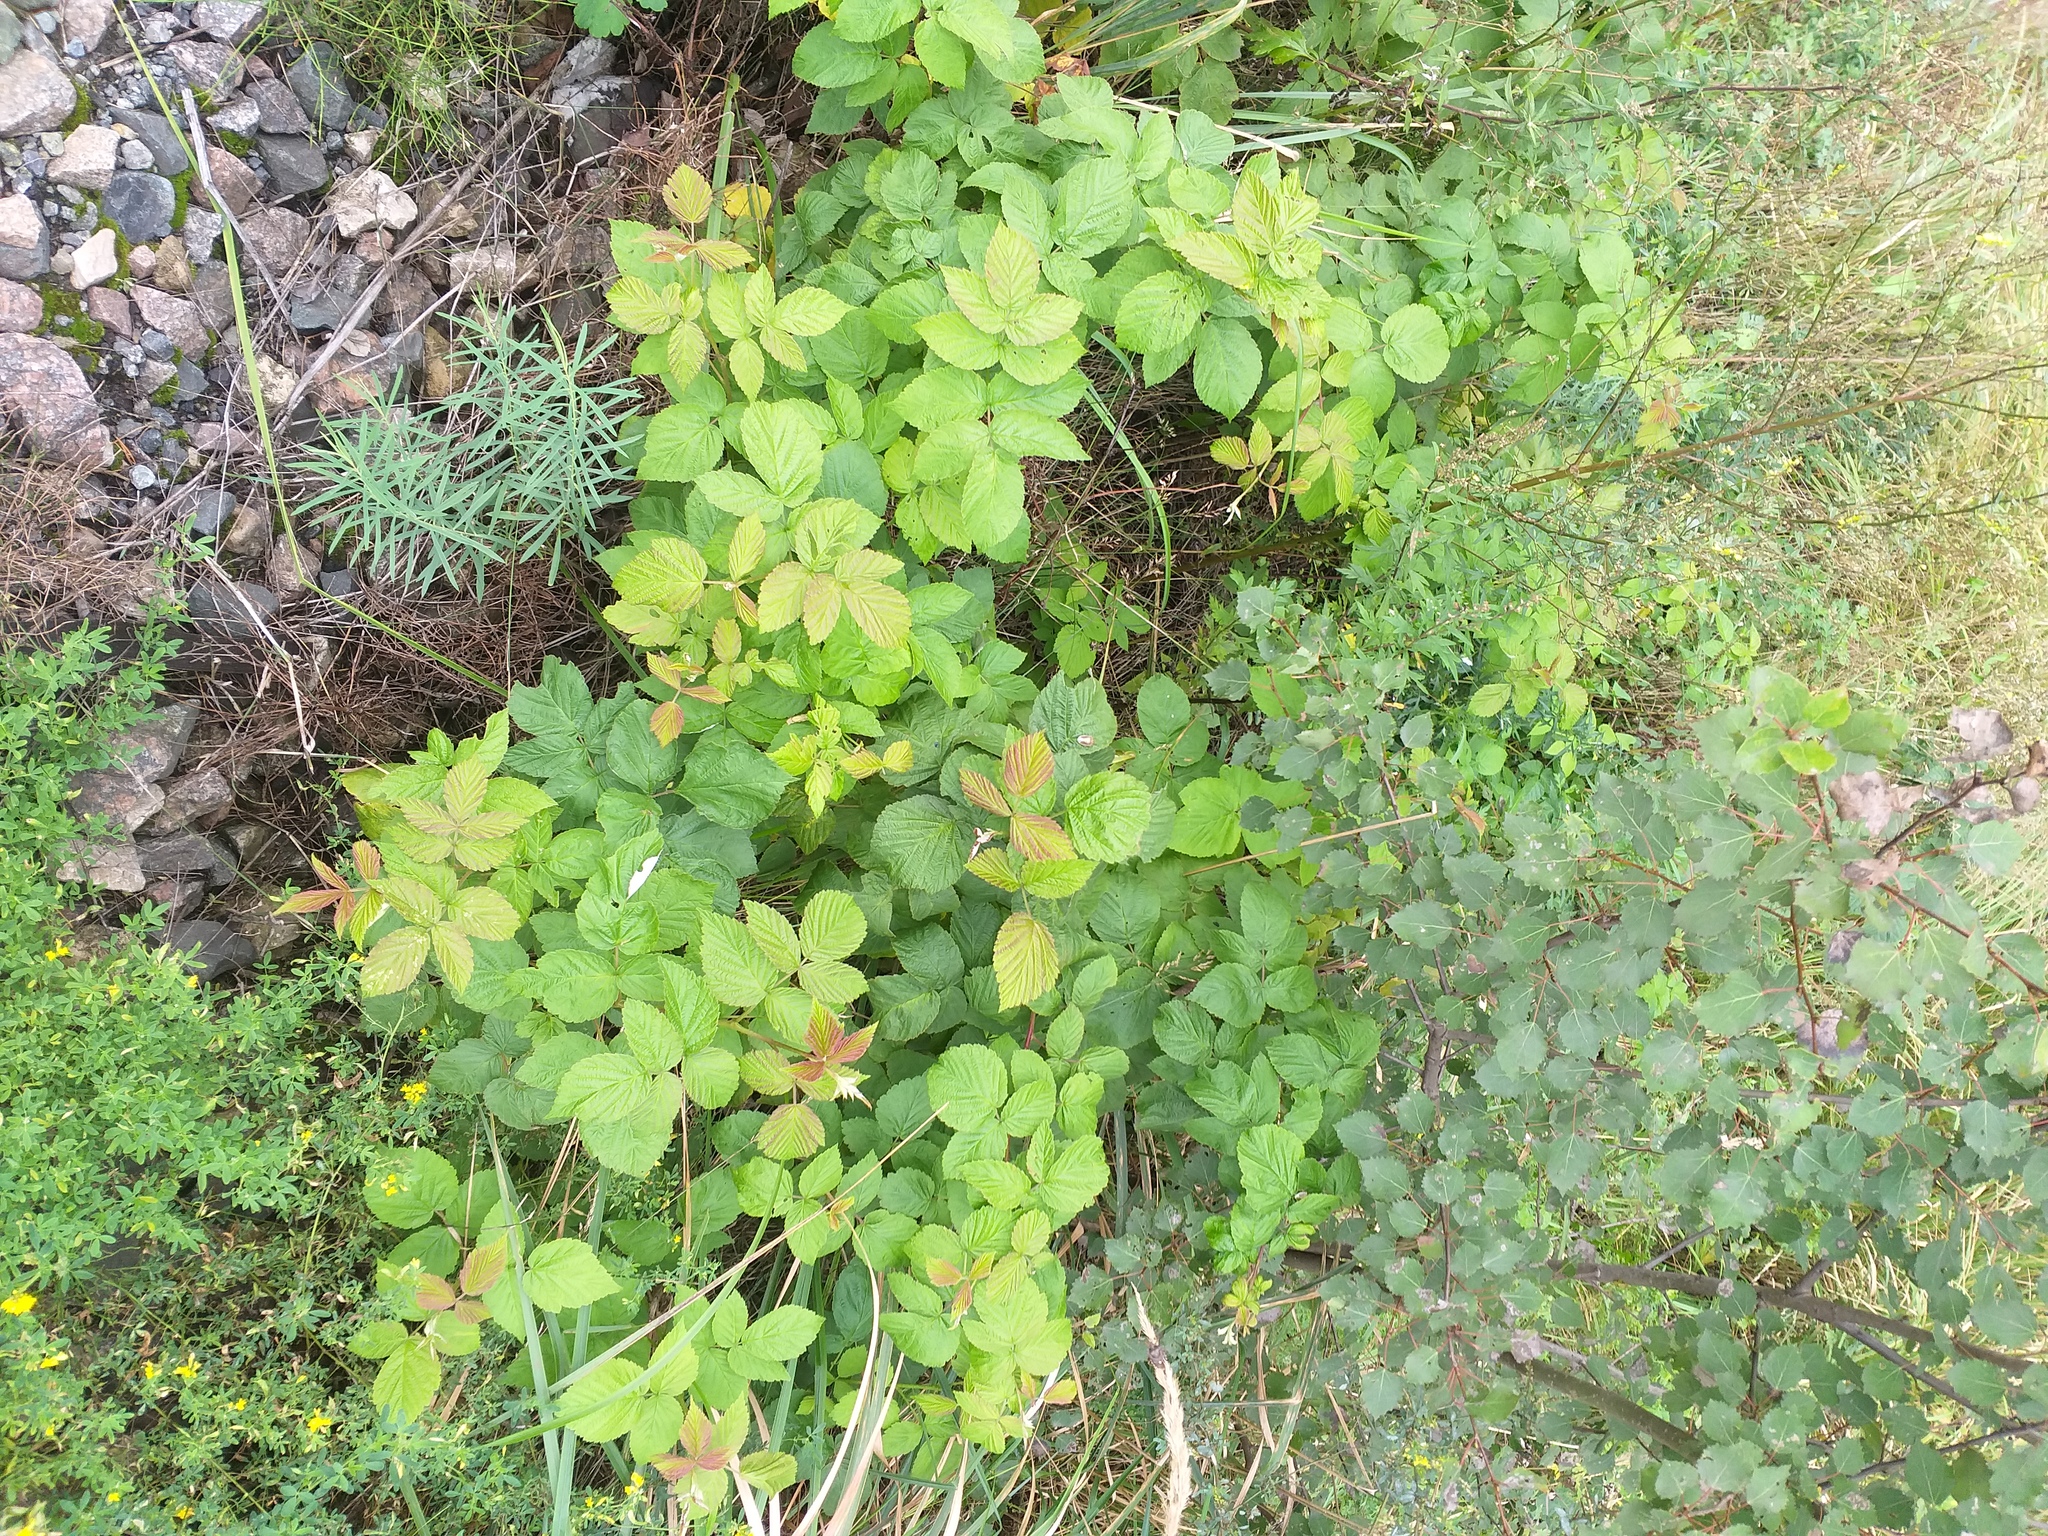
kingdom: Plantae
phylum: Tracheophyta
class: Magnoliopsida
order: Rosales
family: Rosaceae
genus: Rubus
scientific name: Rubus idaeus
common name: Raspberry
